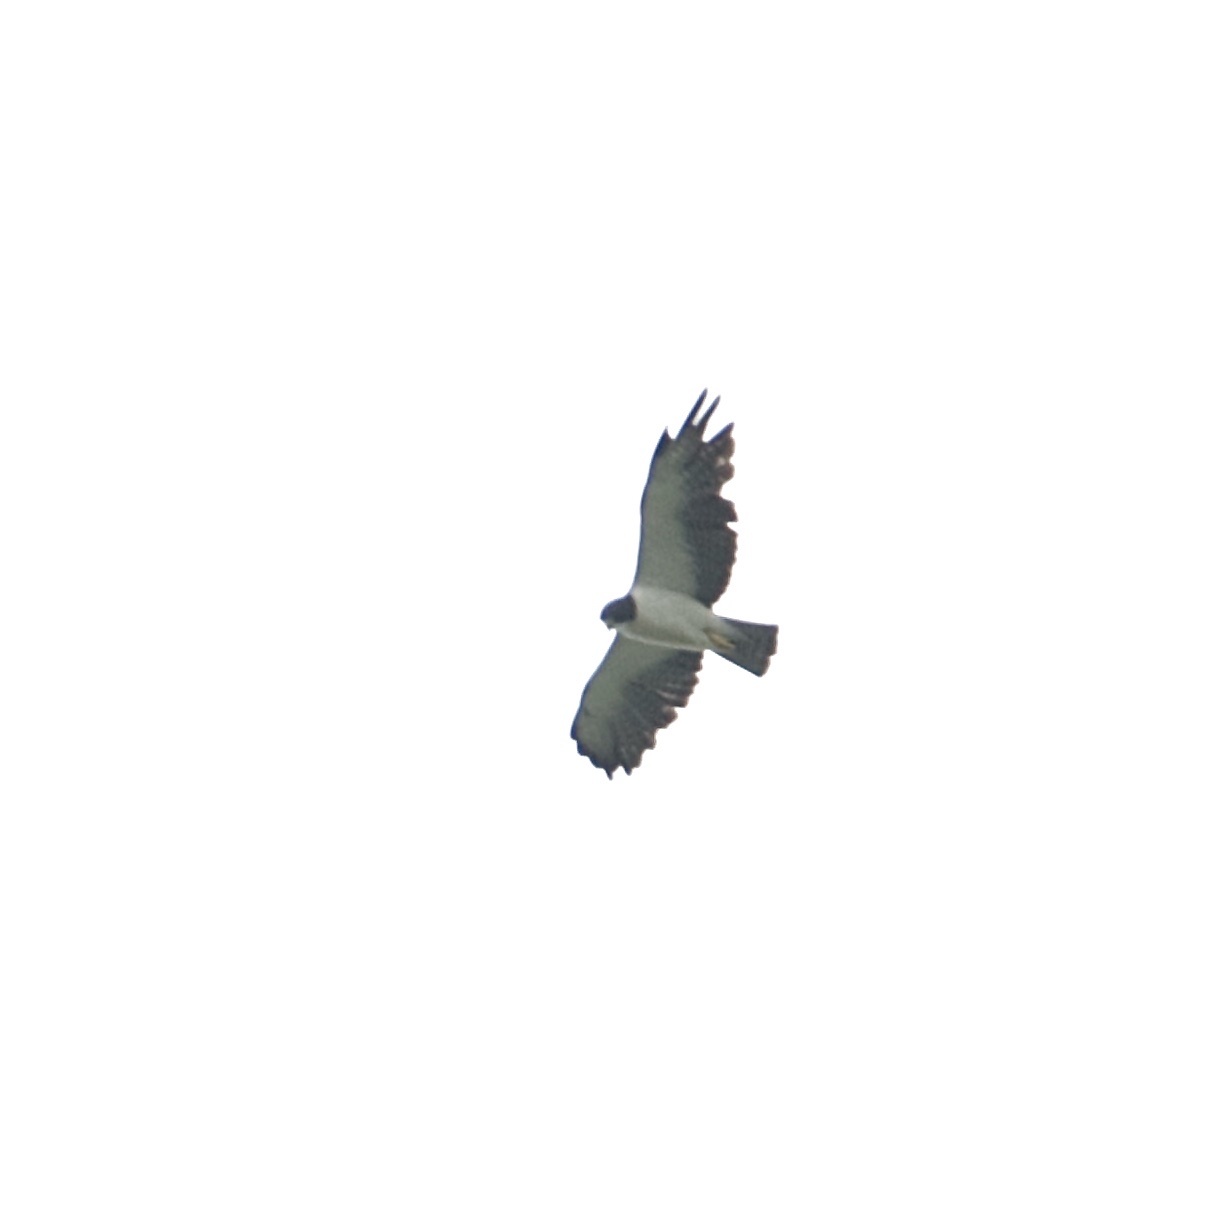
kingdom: Animalia
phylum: Chordata
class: Aves
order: Accipitriformes
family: Accipitridae
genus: Buteo
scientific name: Buteo brachyurus
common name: Short-tailed hawk
